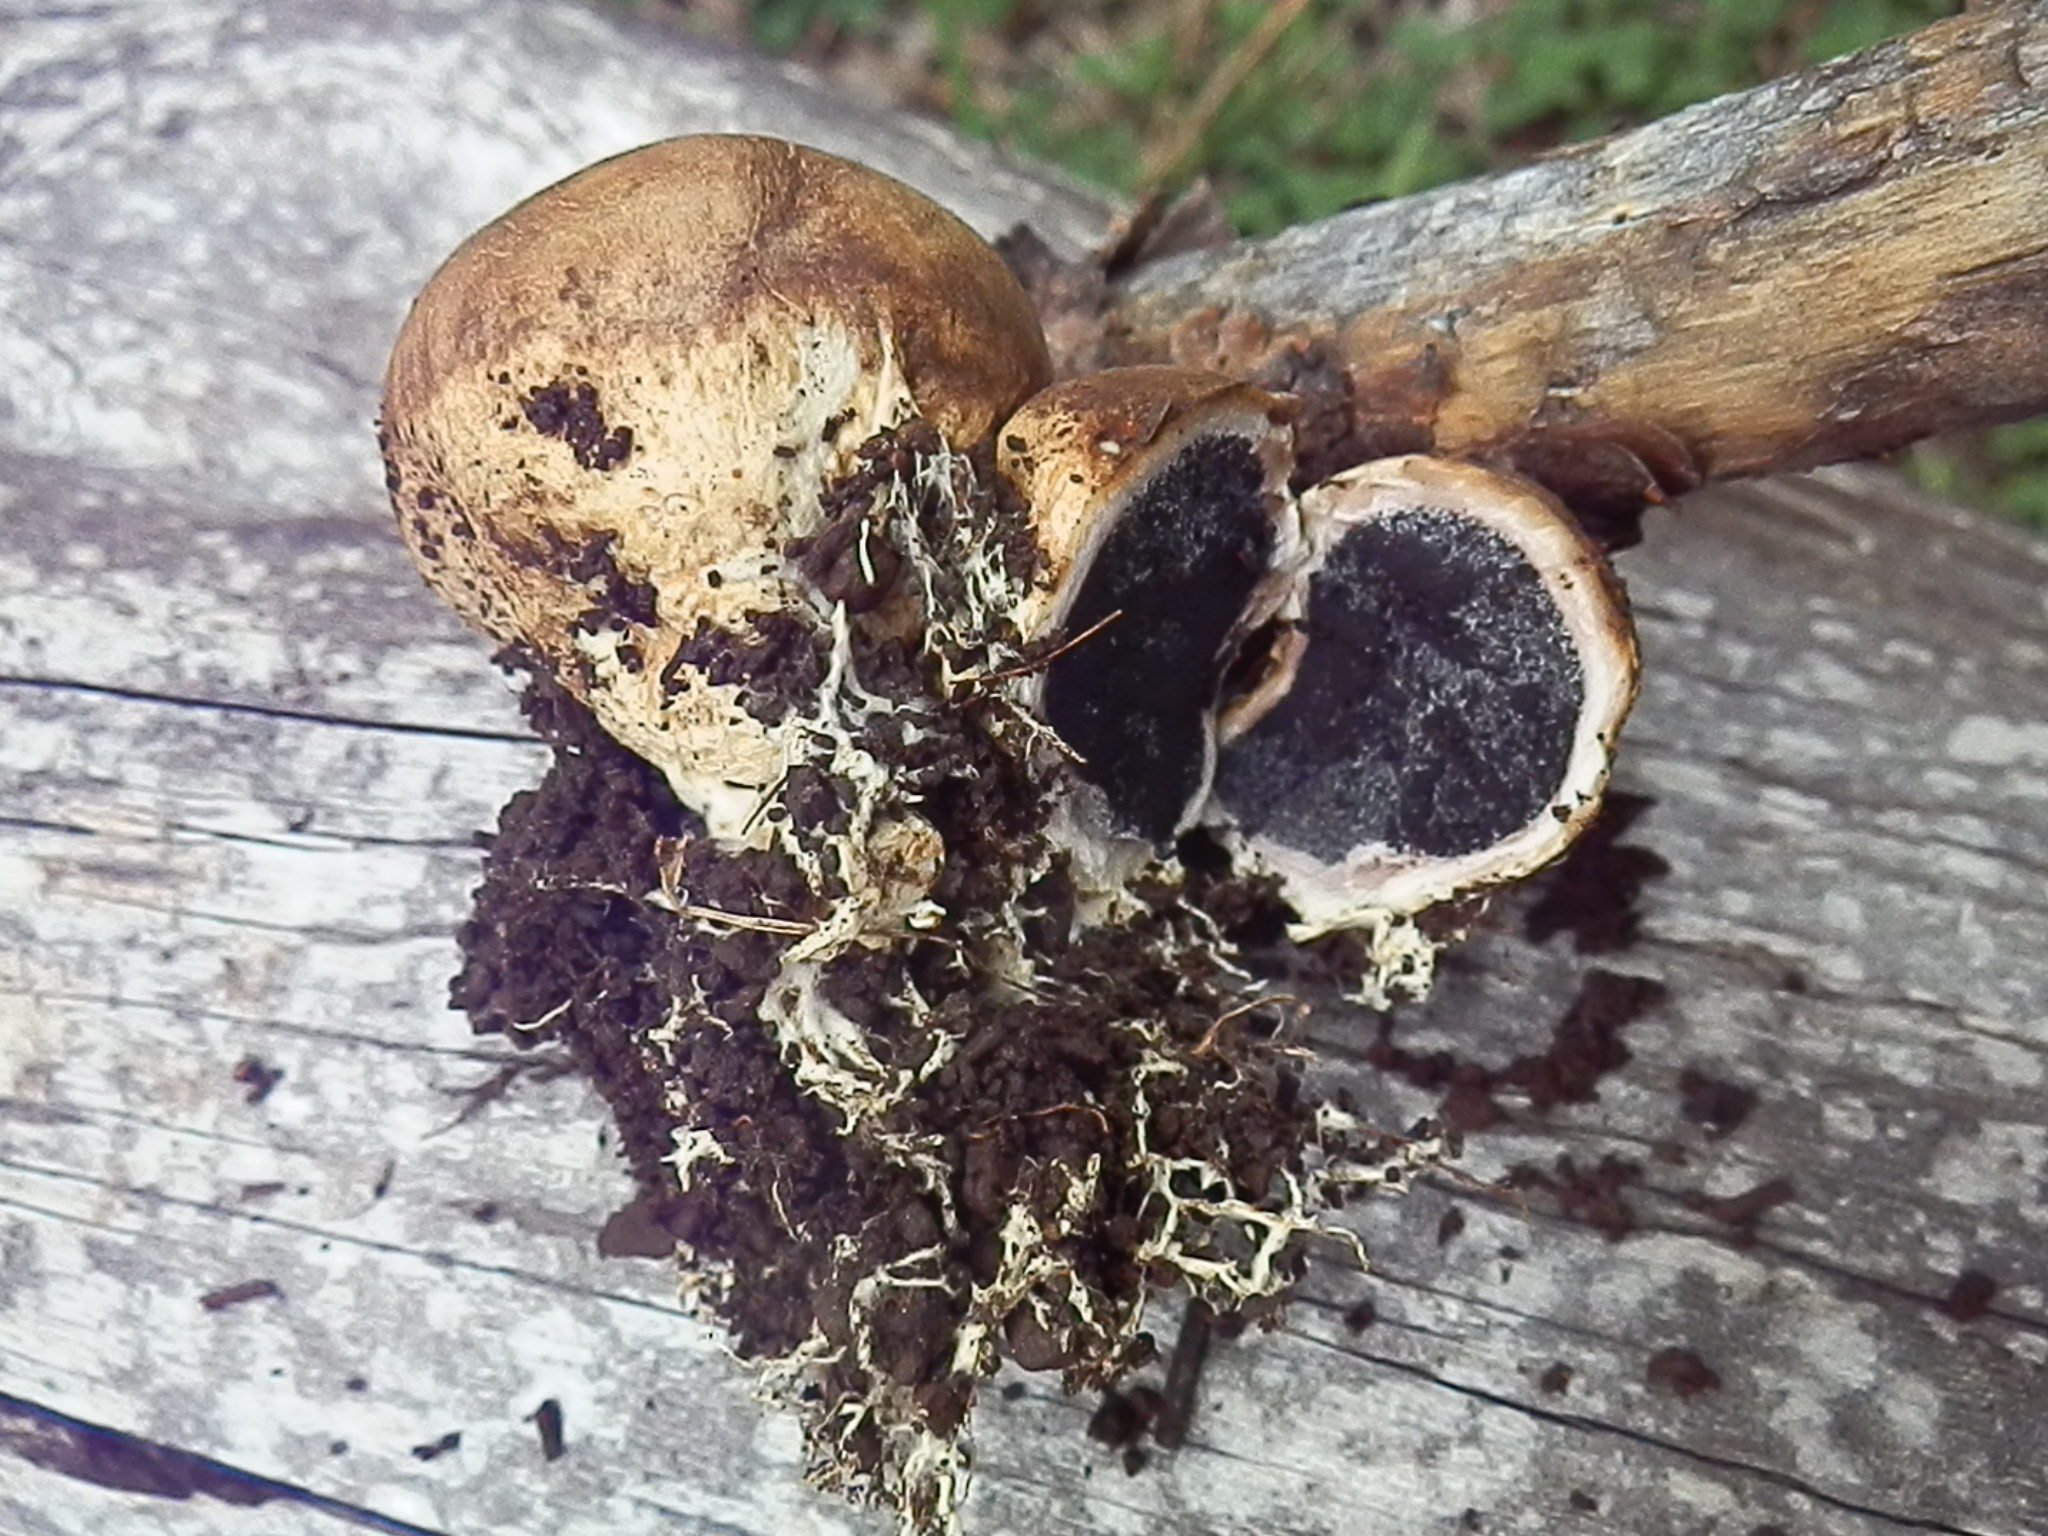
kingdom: Fungi
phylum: Basidiomycota
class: Agaricomycetes
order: Boletales
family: Sclerodermataceae
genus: Scleroderma
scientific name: Scleroderma cepa
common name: Onion earthball
